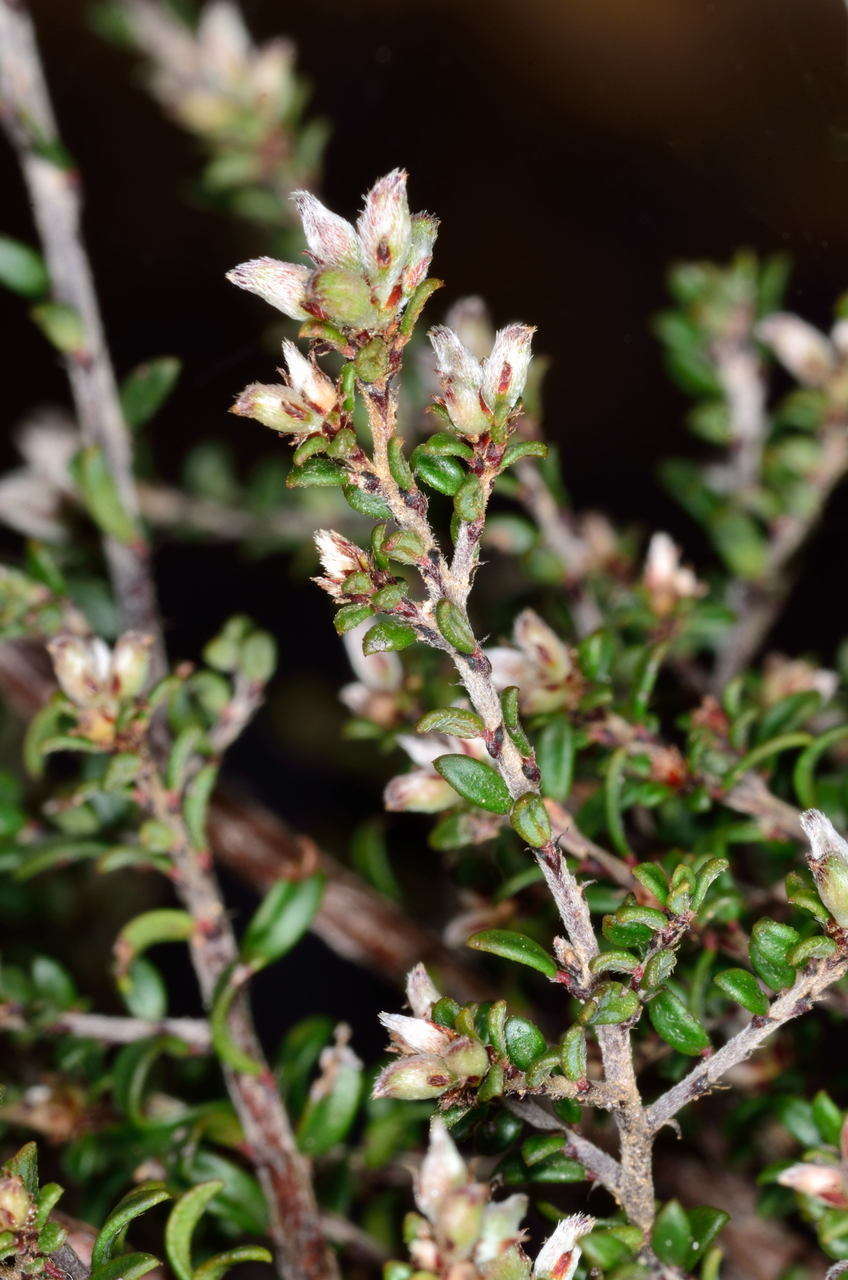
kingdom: Plantae
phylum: Tracheophyta
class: Magnoliopsida
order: Fabales
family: Fabaceae
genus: Pultenaea
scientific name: Pultenaea gunnii
